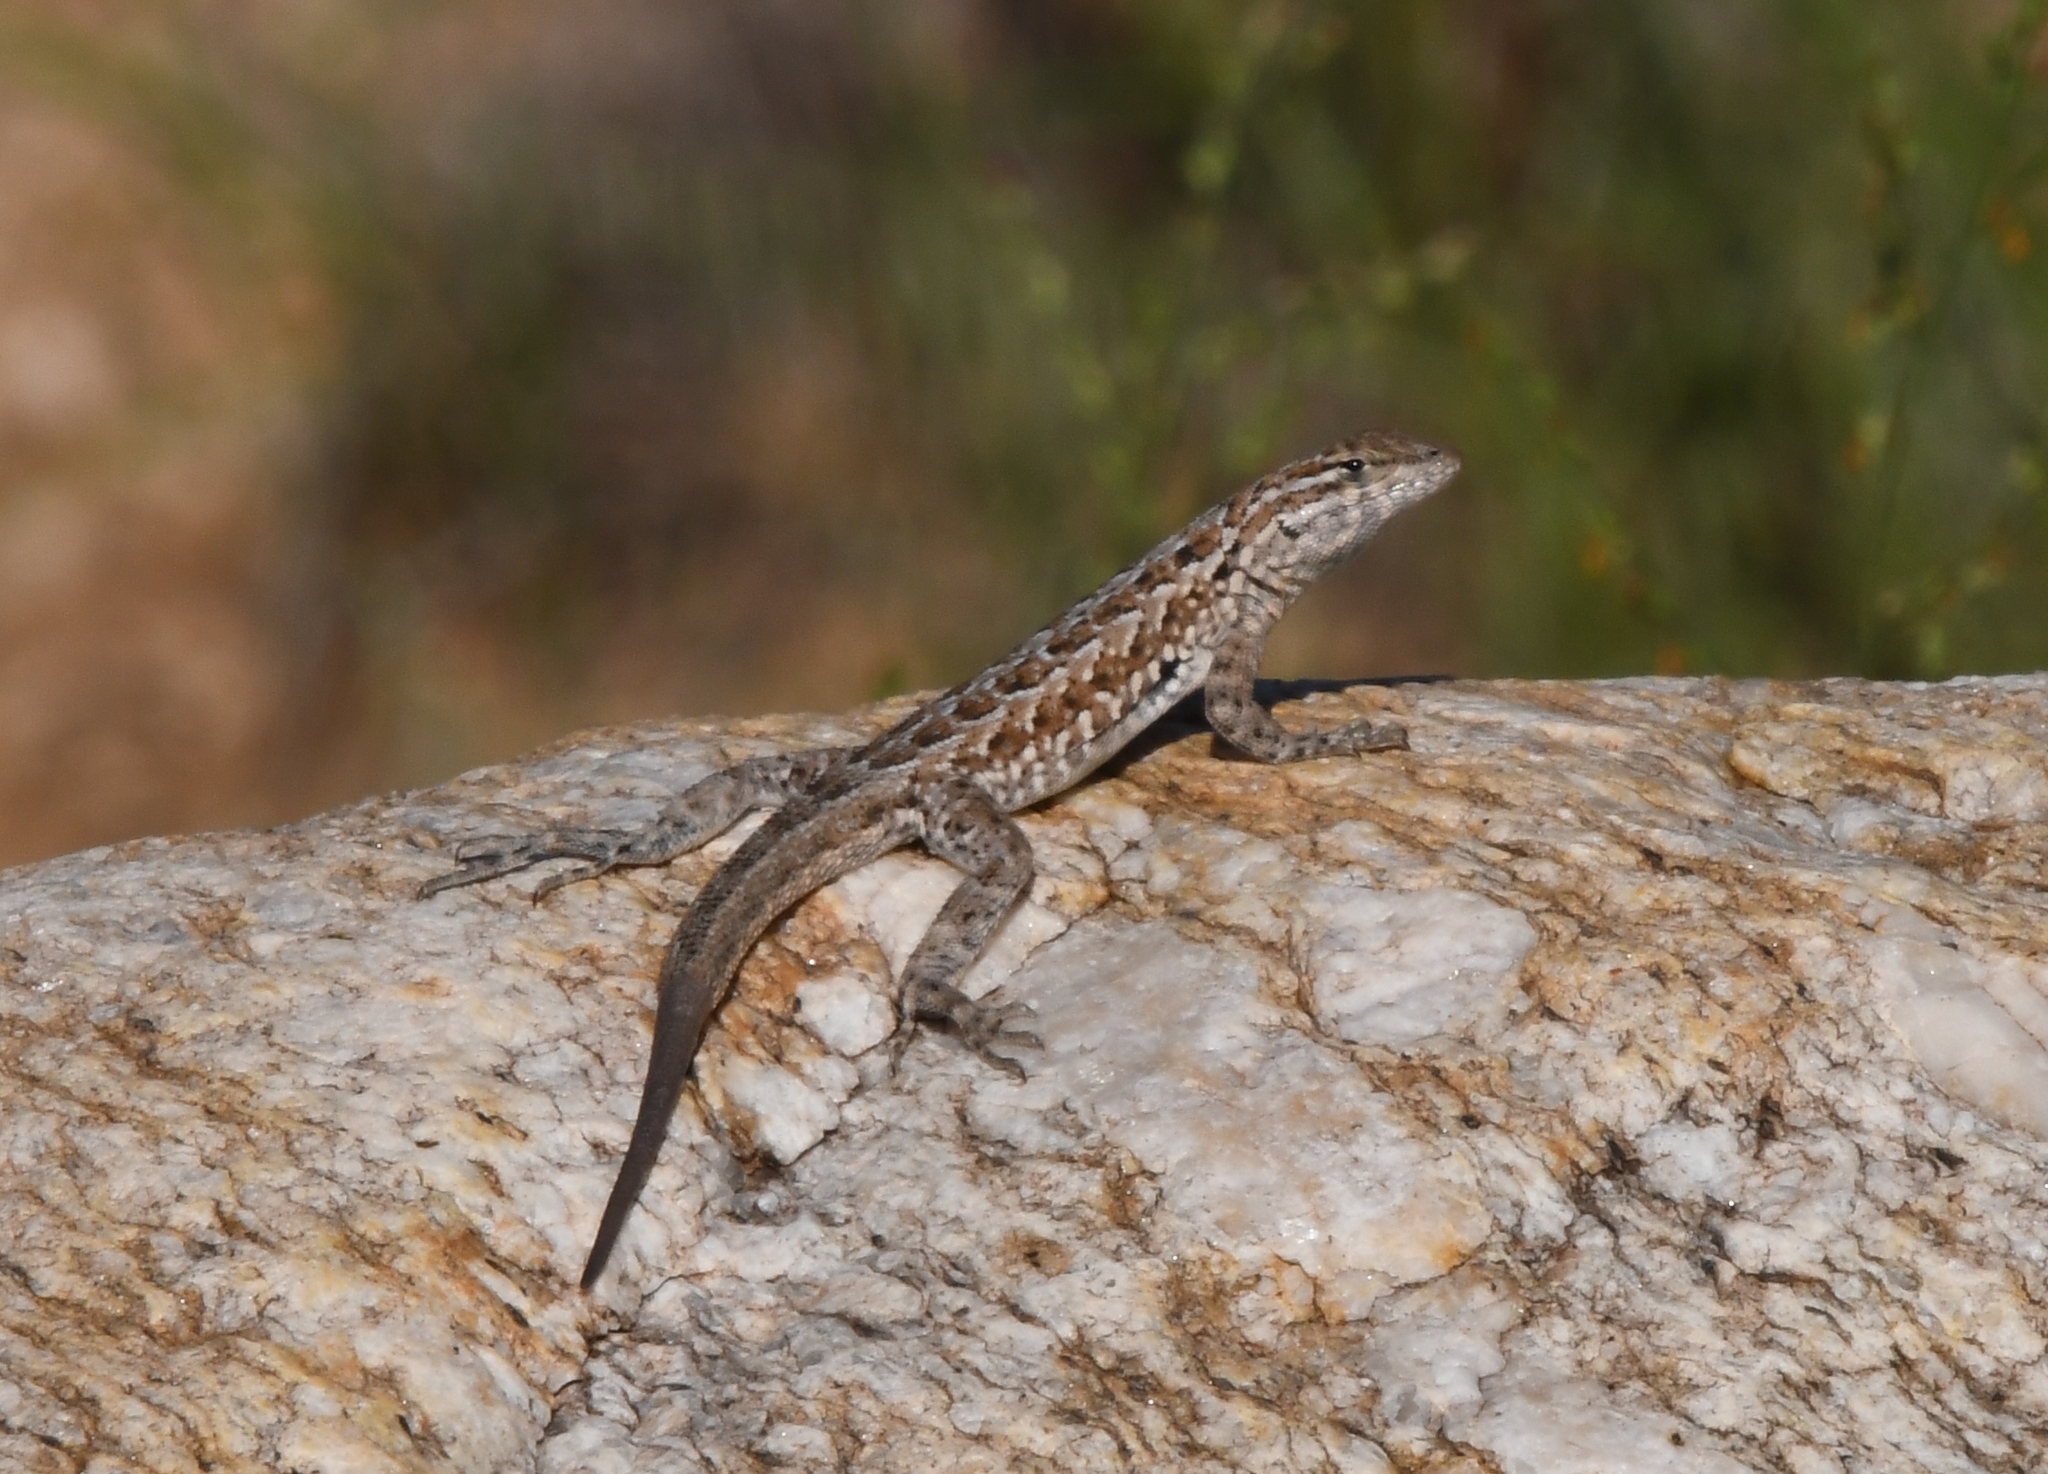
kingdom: Animalia
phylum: Chordata
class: Squamata
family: Phrynosomatidae
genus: Uta
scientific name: Uta stansburiana
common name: Side-blotched lizard
